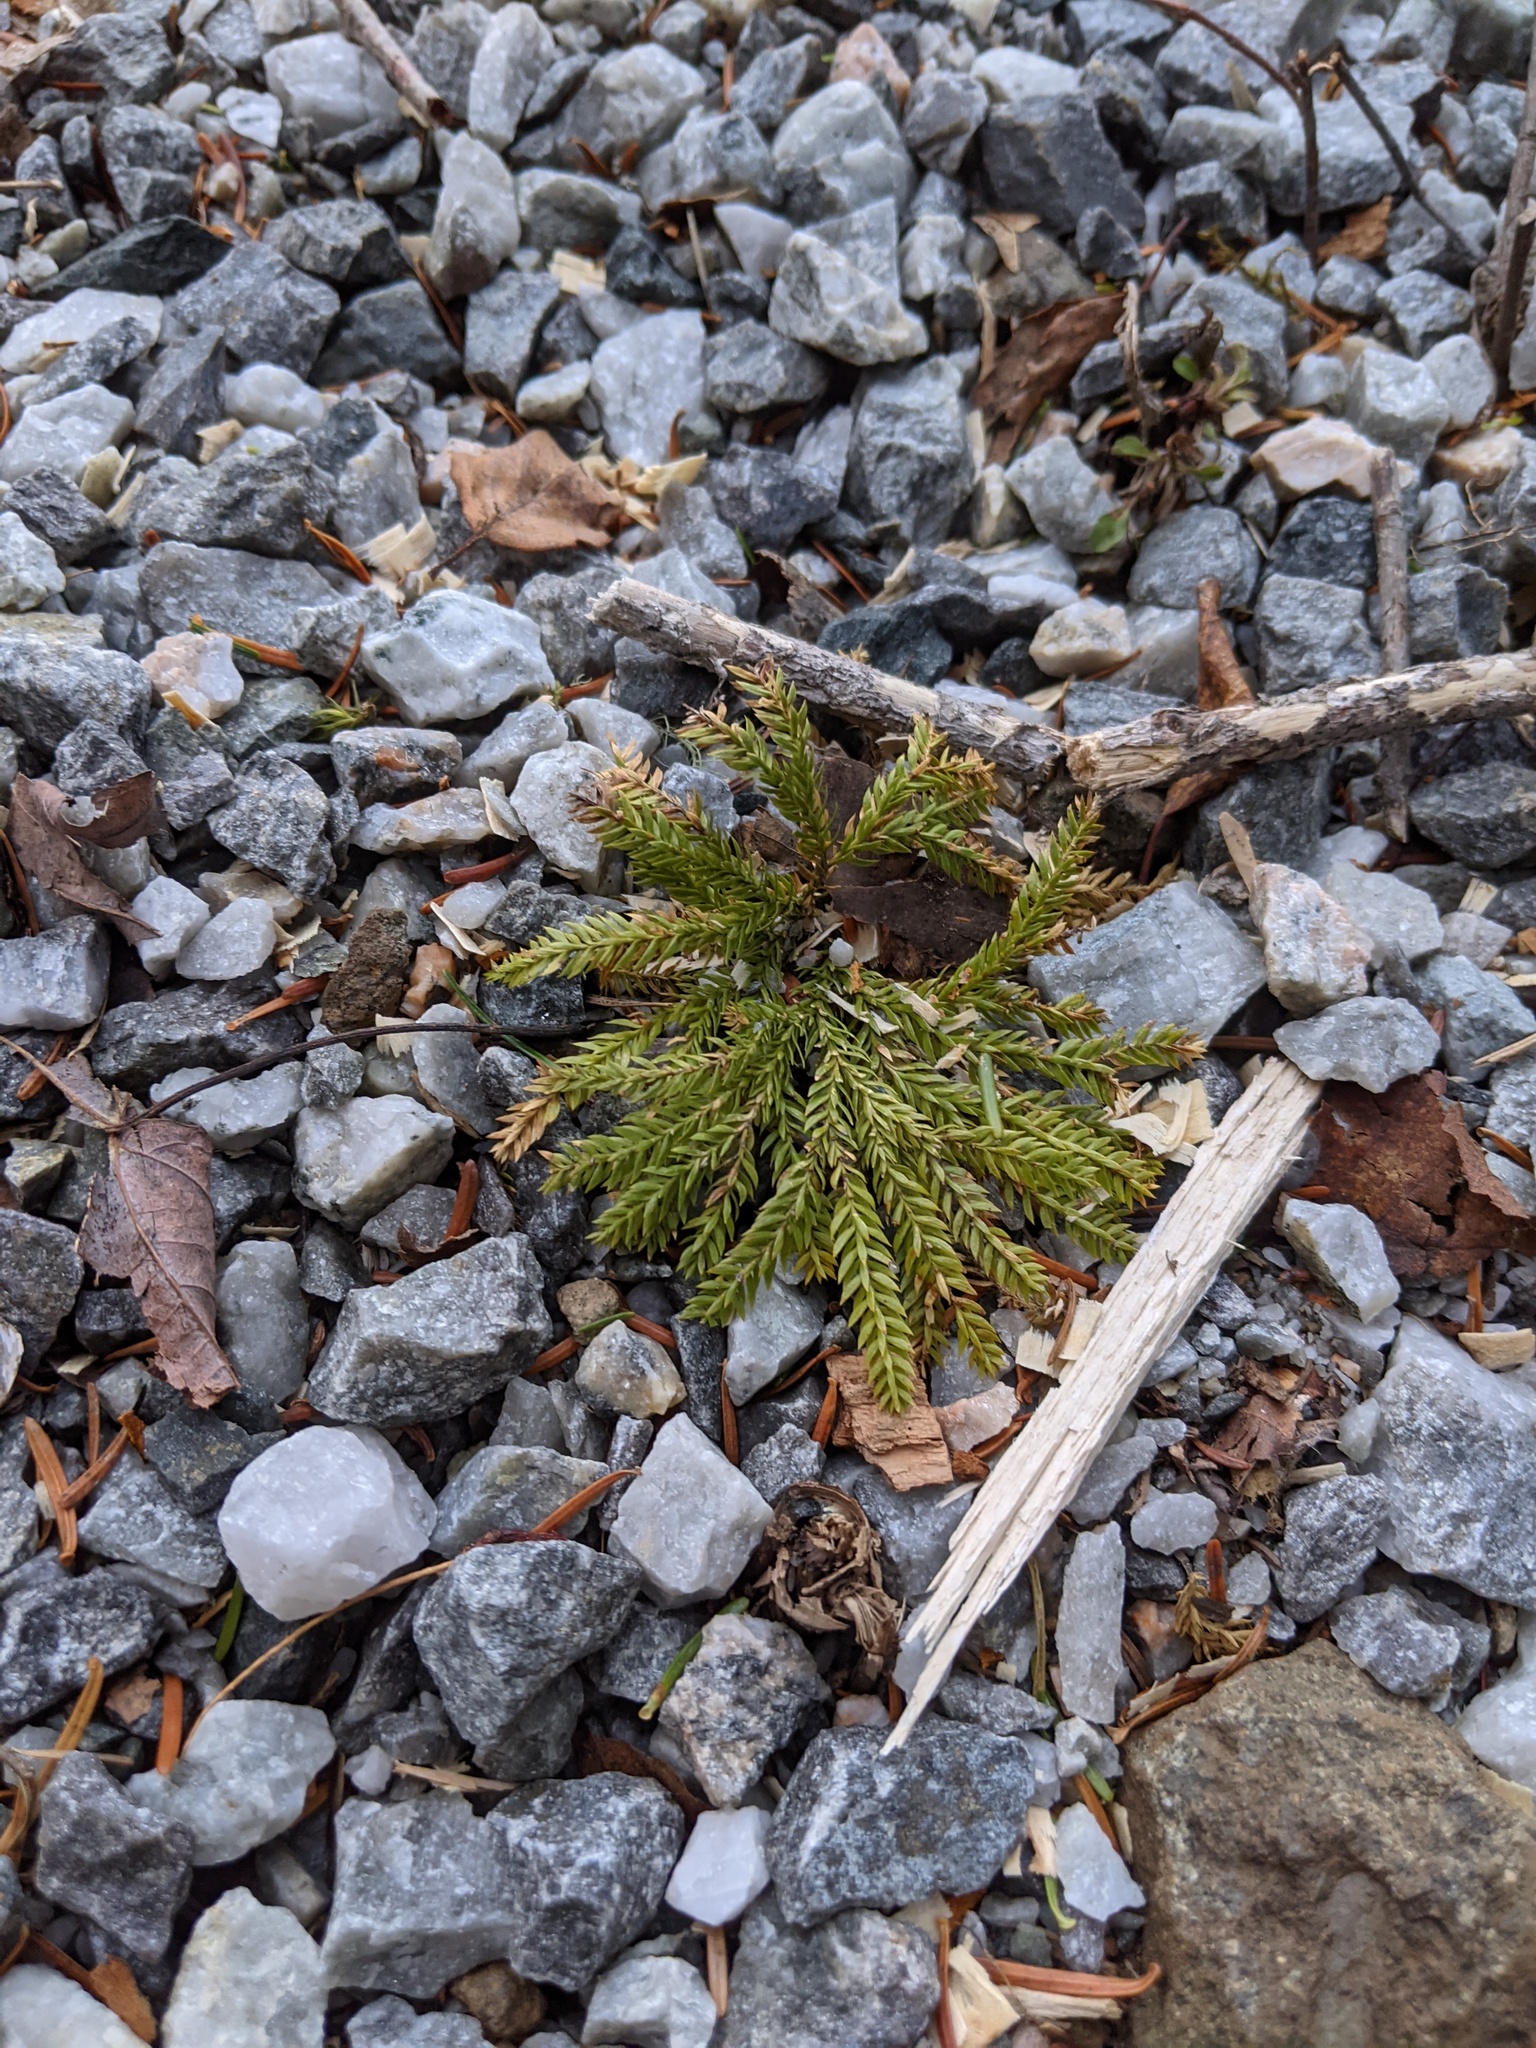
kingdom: Plantae
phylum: Tracheophyta
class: Lycopodiopsida
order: Lycopodiales
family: Lycopodiaceae
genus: Dendrolycopodium
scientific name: Dendrolycopodium obscurum
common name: Common ground-pine
